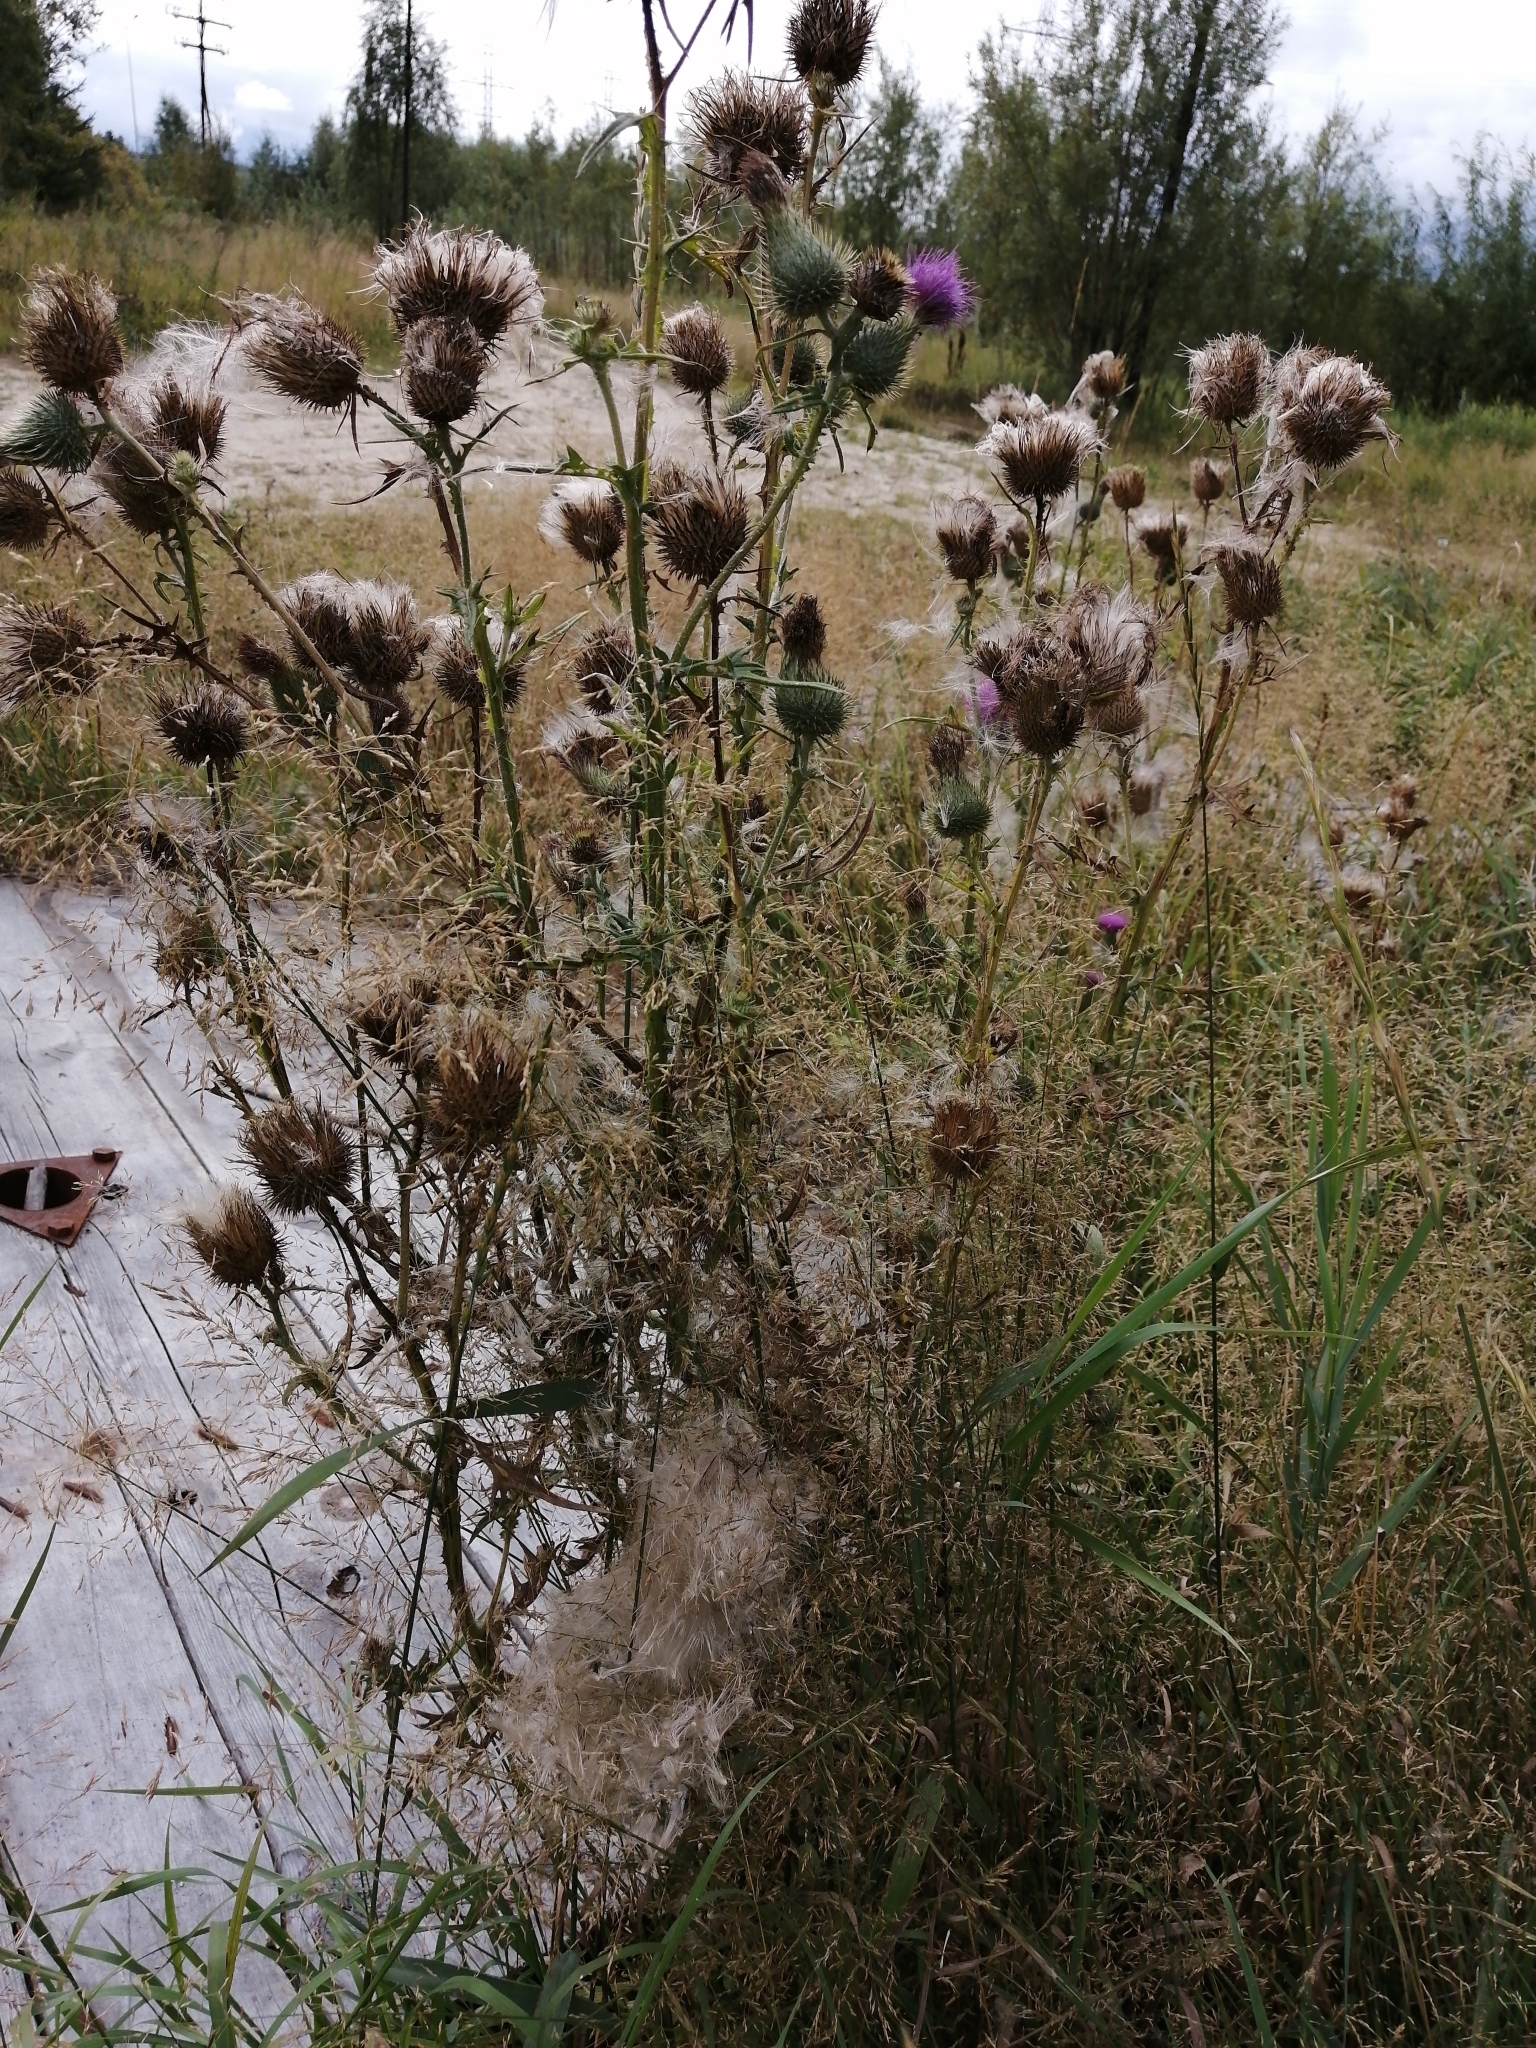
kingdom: Plantae
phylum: Tracheophyta
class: Magnoliopsida
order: Asterales
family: Asteraceae
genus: Cirsium
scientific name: Cirsium vulgare
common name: Bull thistle
